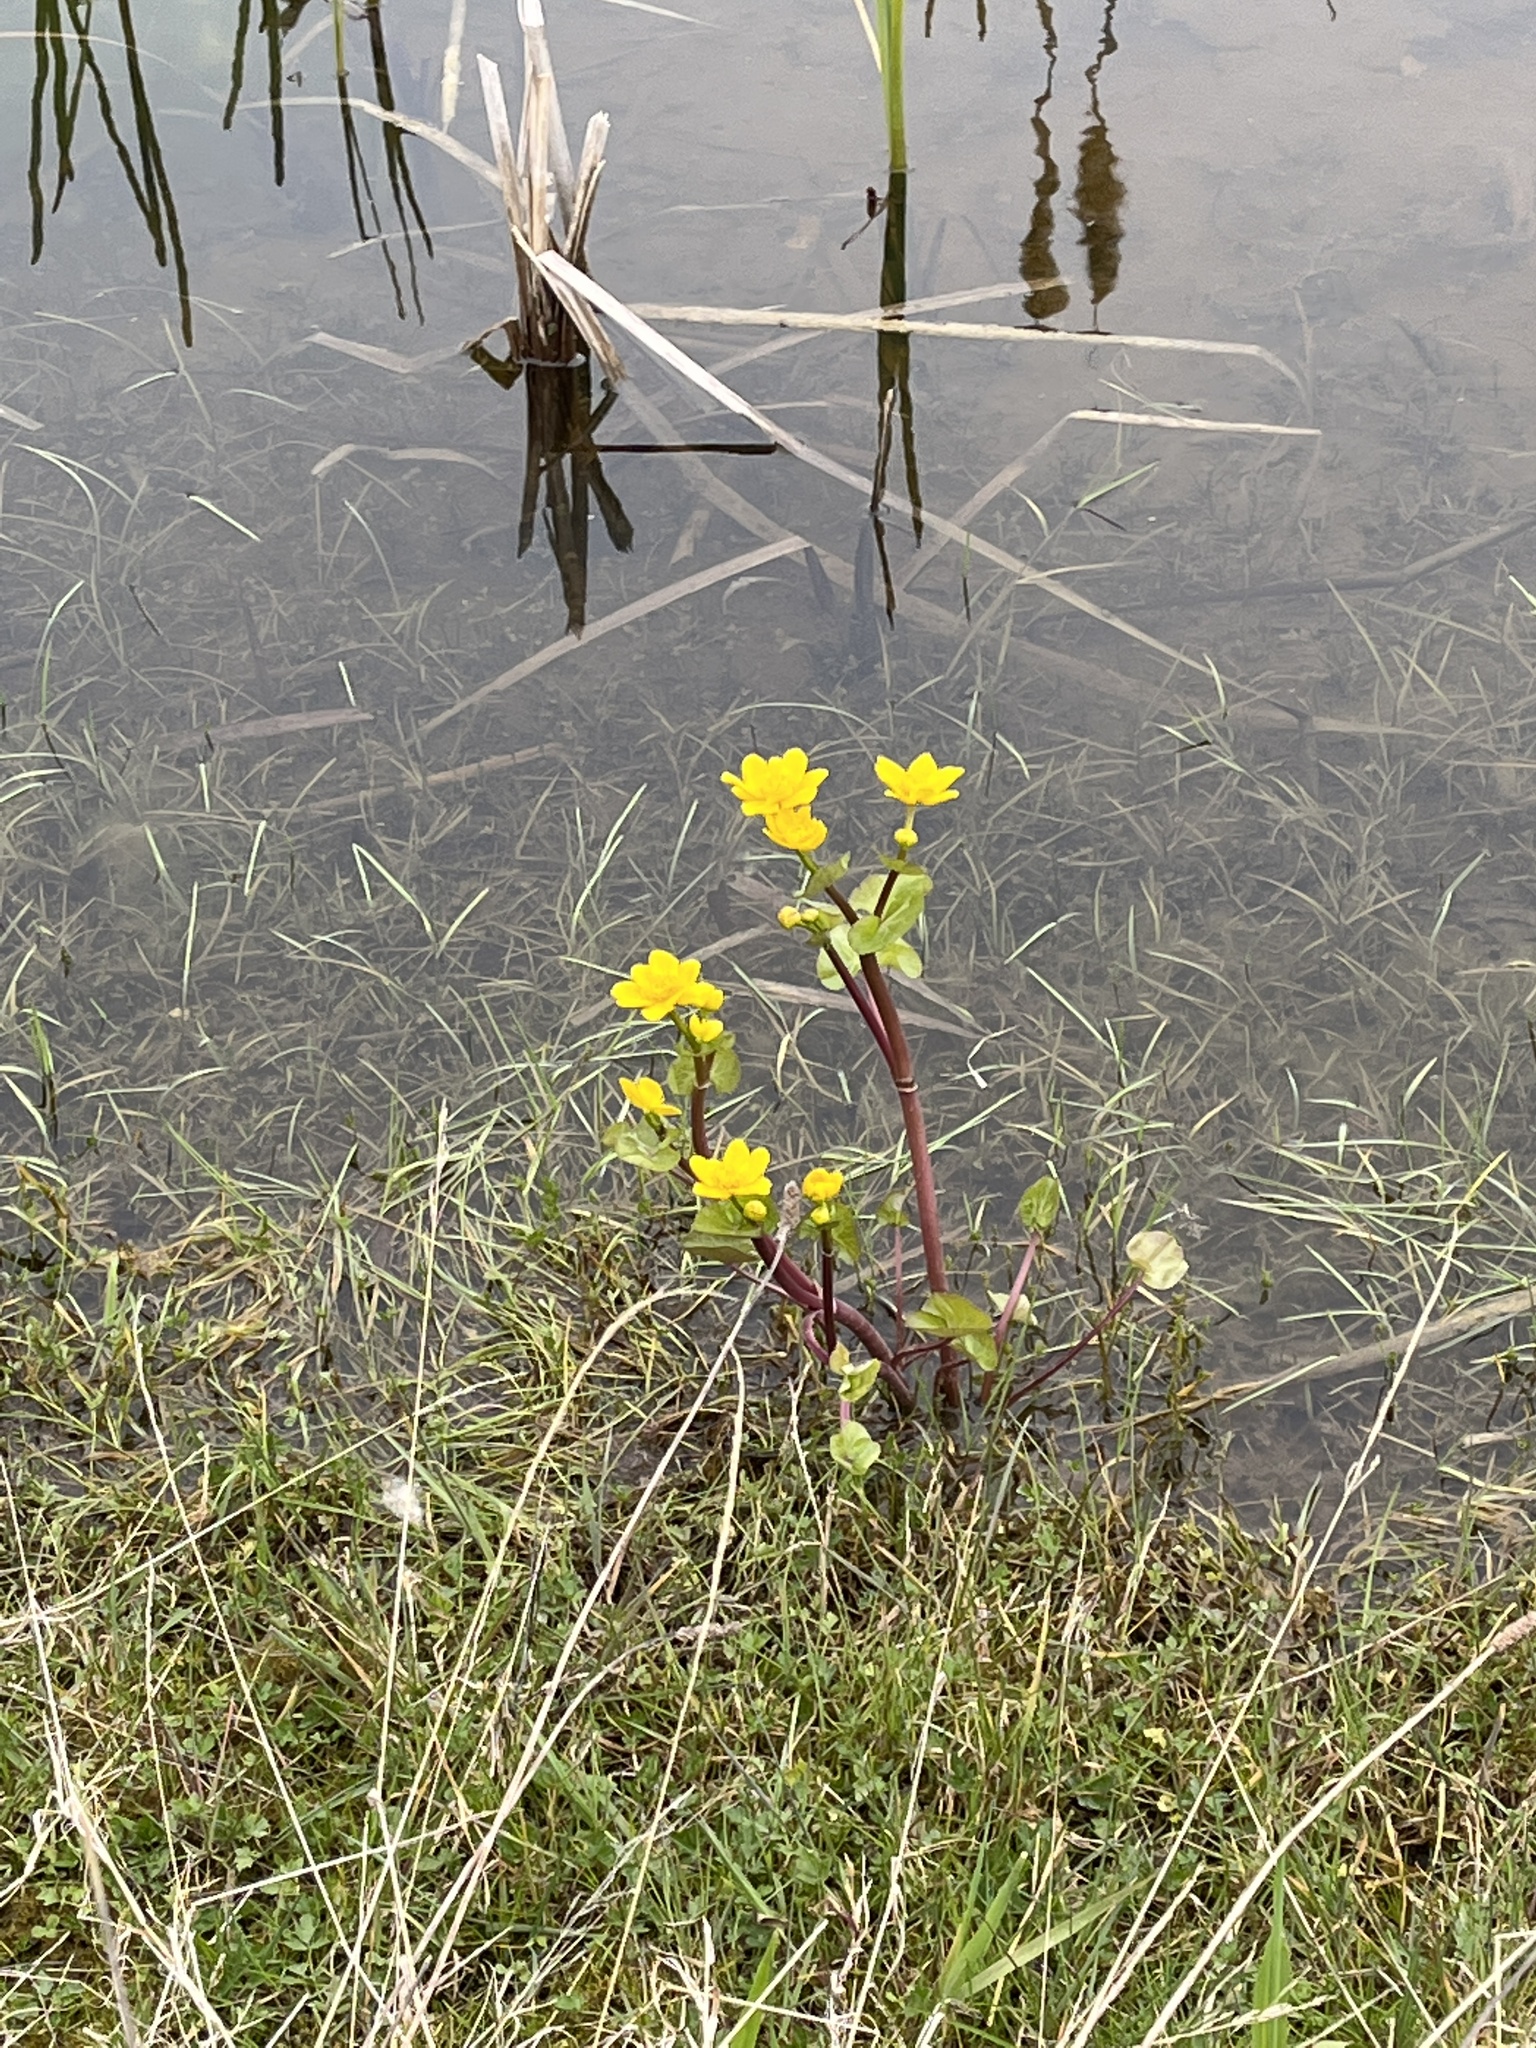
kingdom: Plantae
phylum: Tracheophyta
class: Magnoliopsida
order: Ranunculales
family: Ranunculaceae
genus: Caltha
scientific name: Caltha palustris
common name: Marsh marigold
